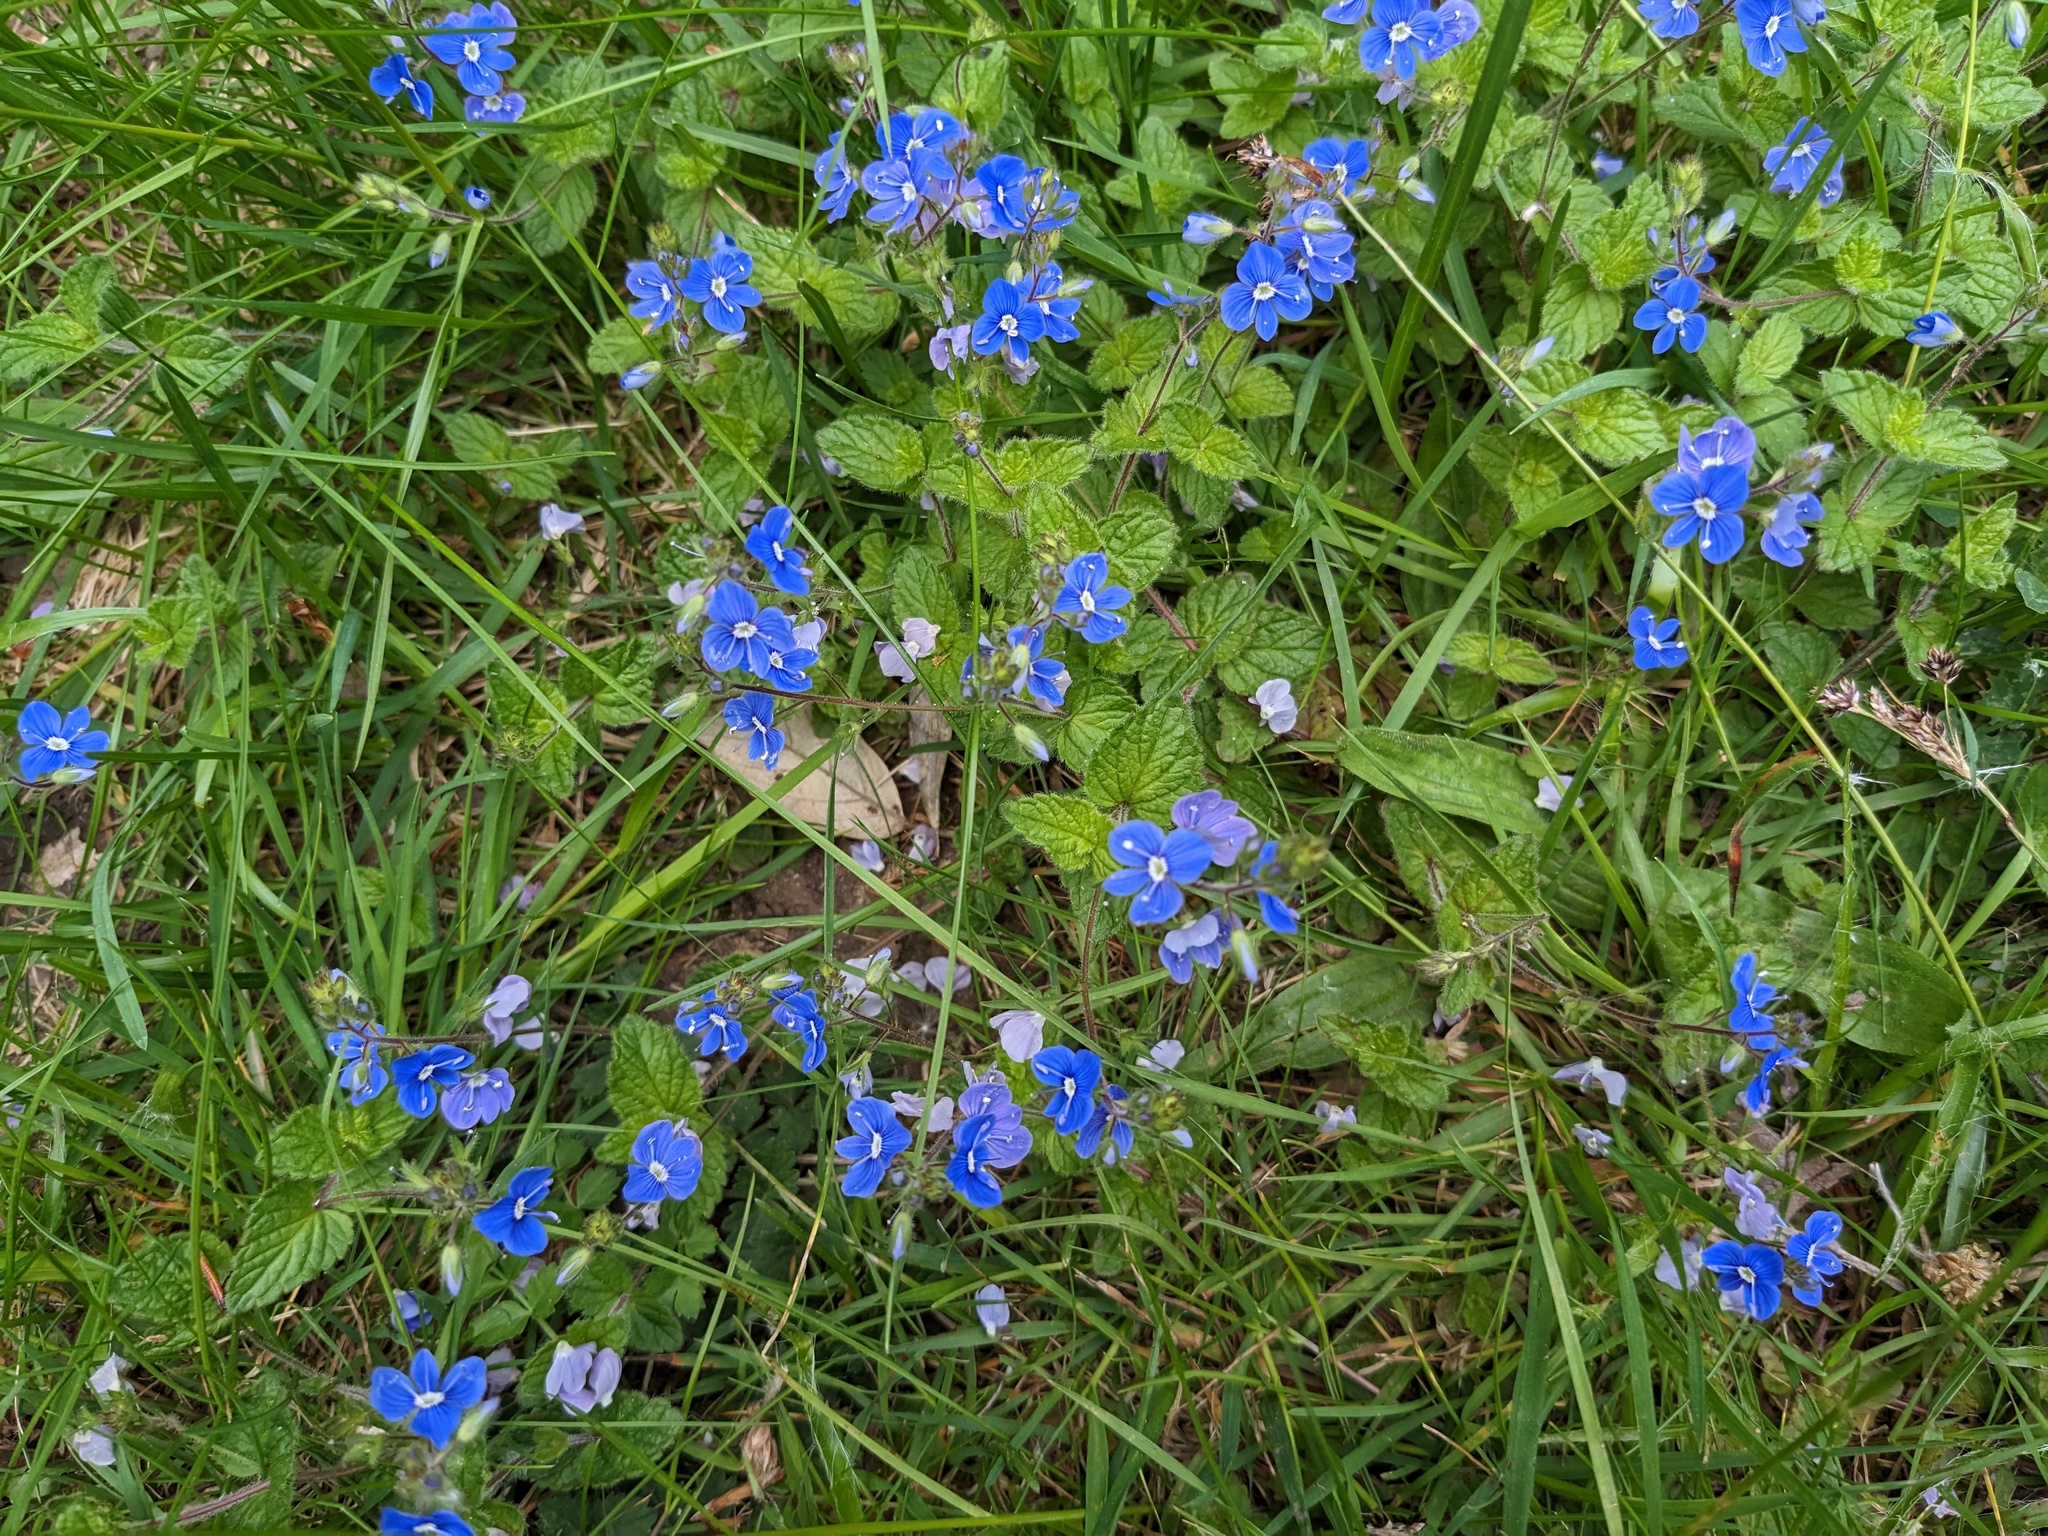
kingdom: Plantae
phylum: Tracheophyta
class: Magnoliopsida
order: Lamiales
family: Plantaginaceae
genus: Veronica
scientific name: Veronica chamaedrys
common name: Germander speedwell
